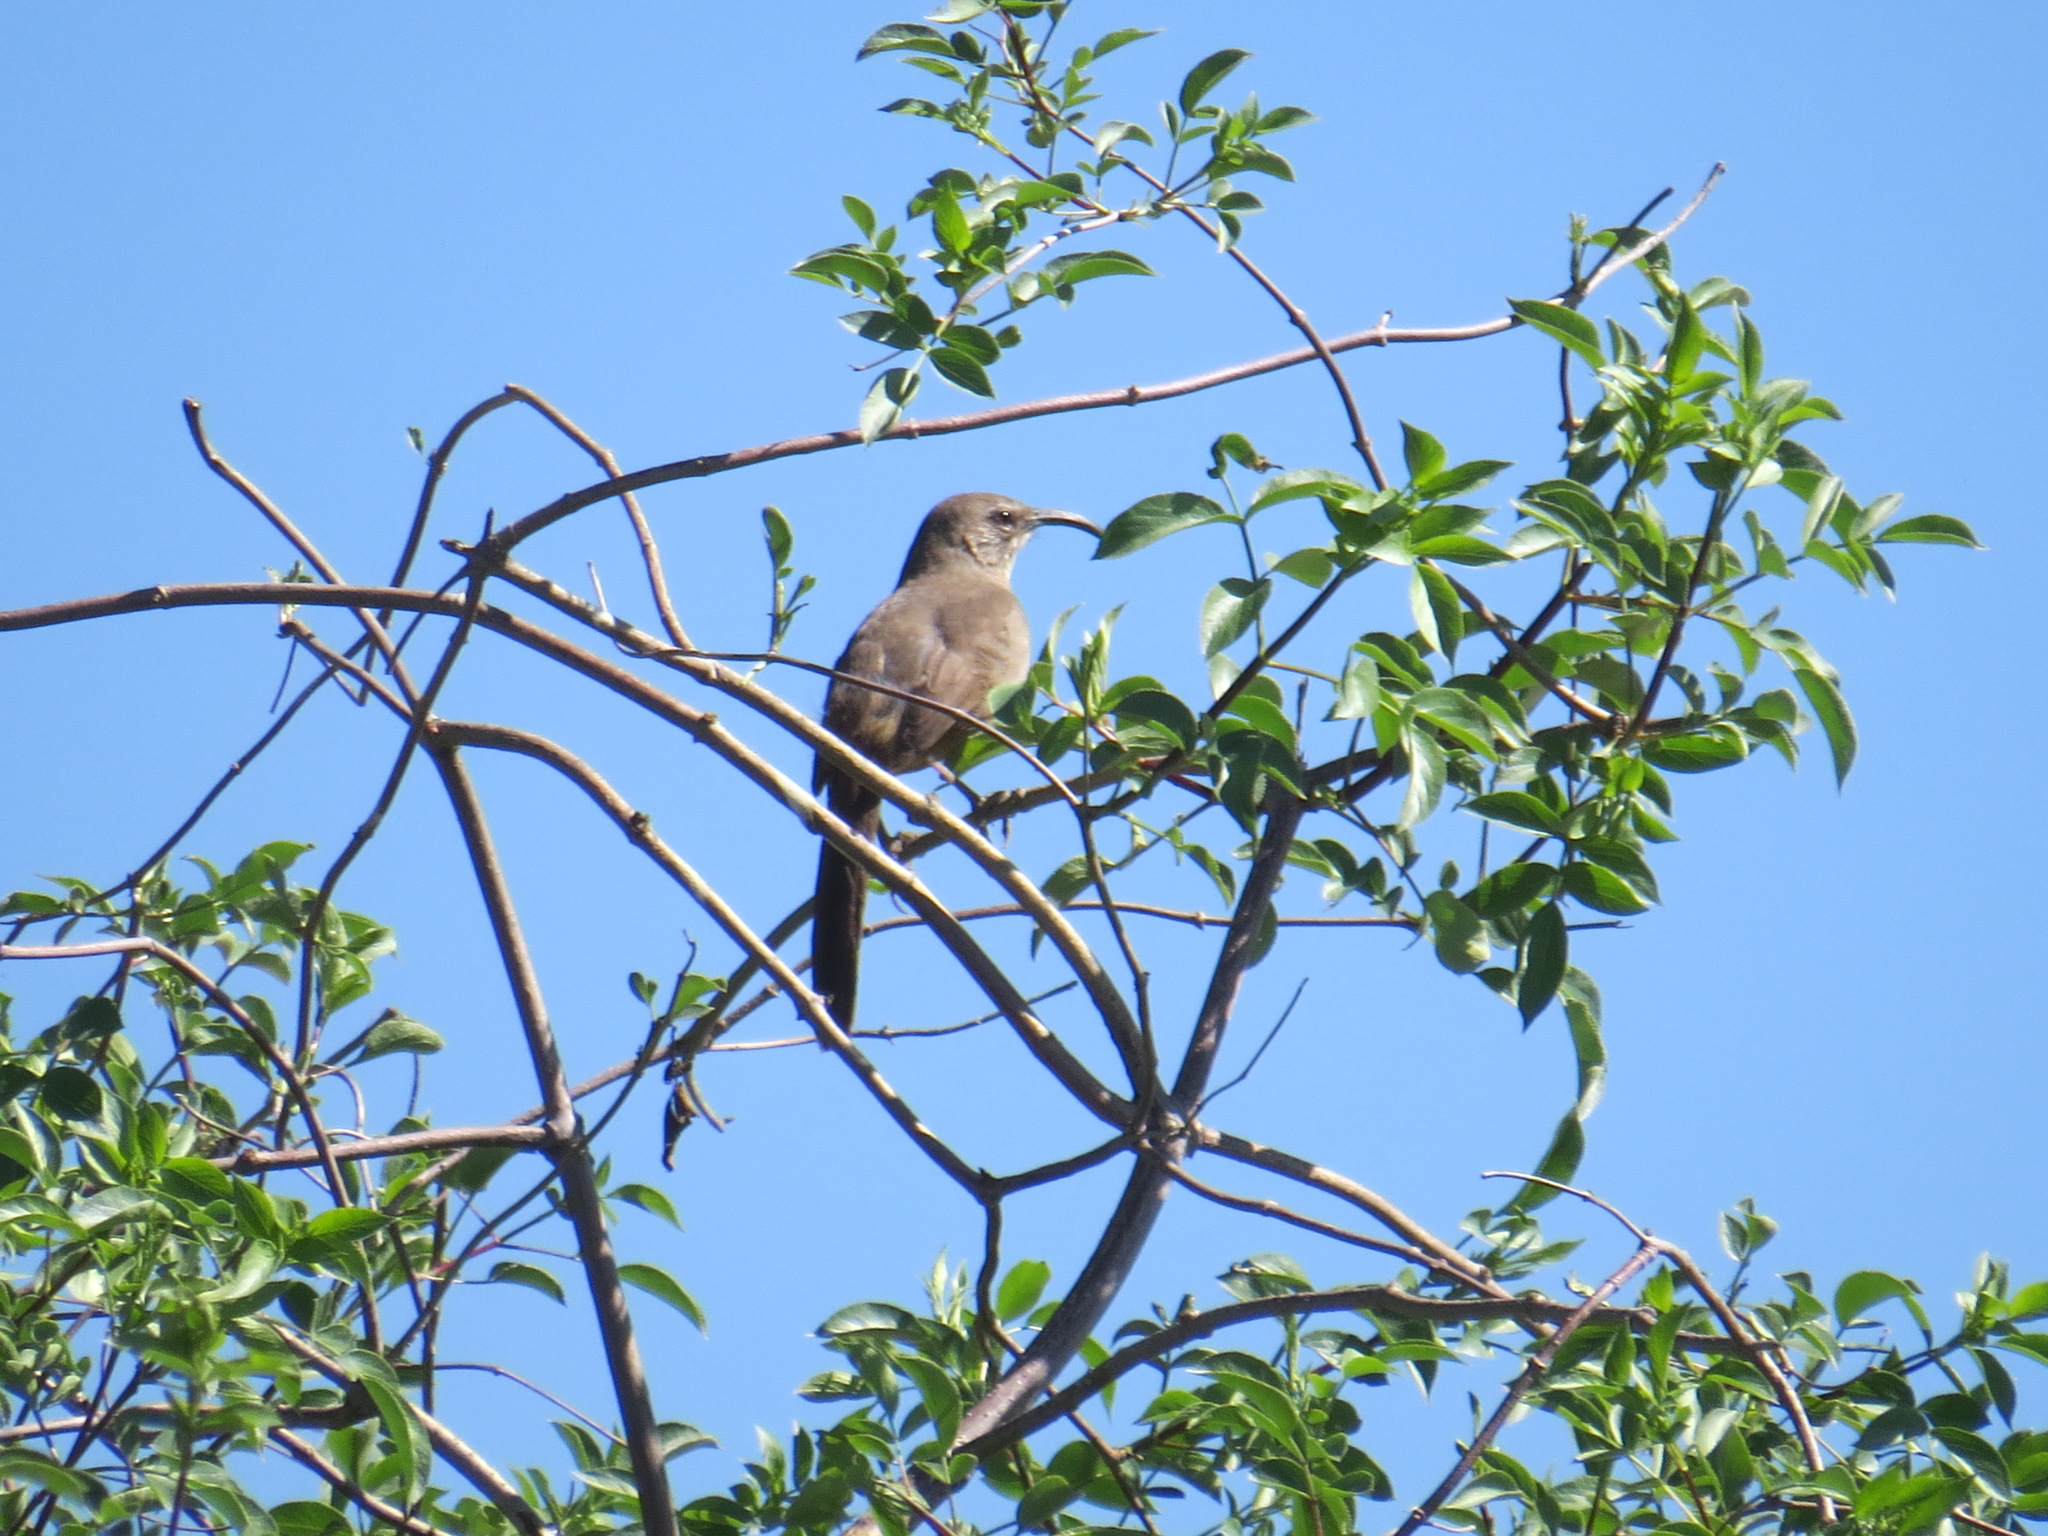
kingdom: Animalia
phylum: Chordata
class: Aves
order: Passeriformes
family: Mimidae
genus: Toxostoma
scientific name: Toxostoma redivivum
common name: California thrasher
